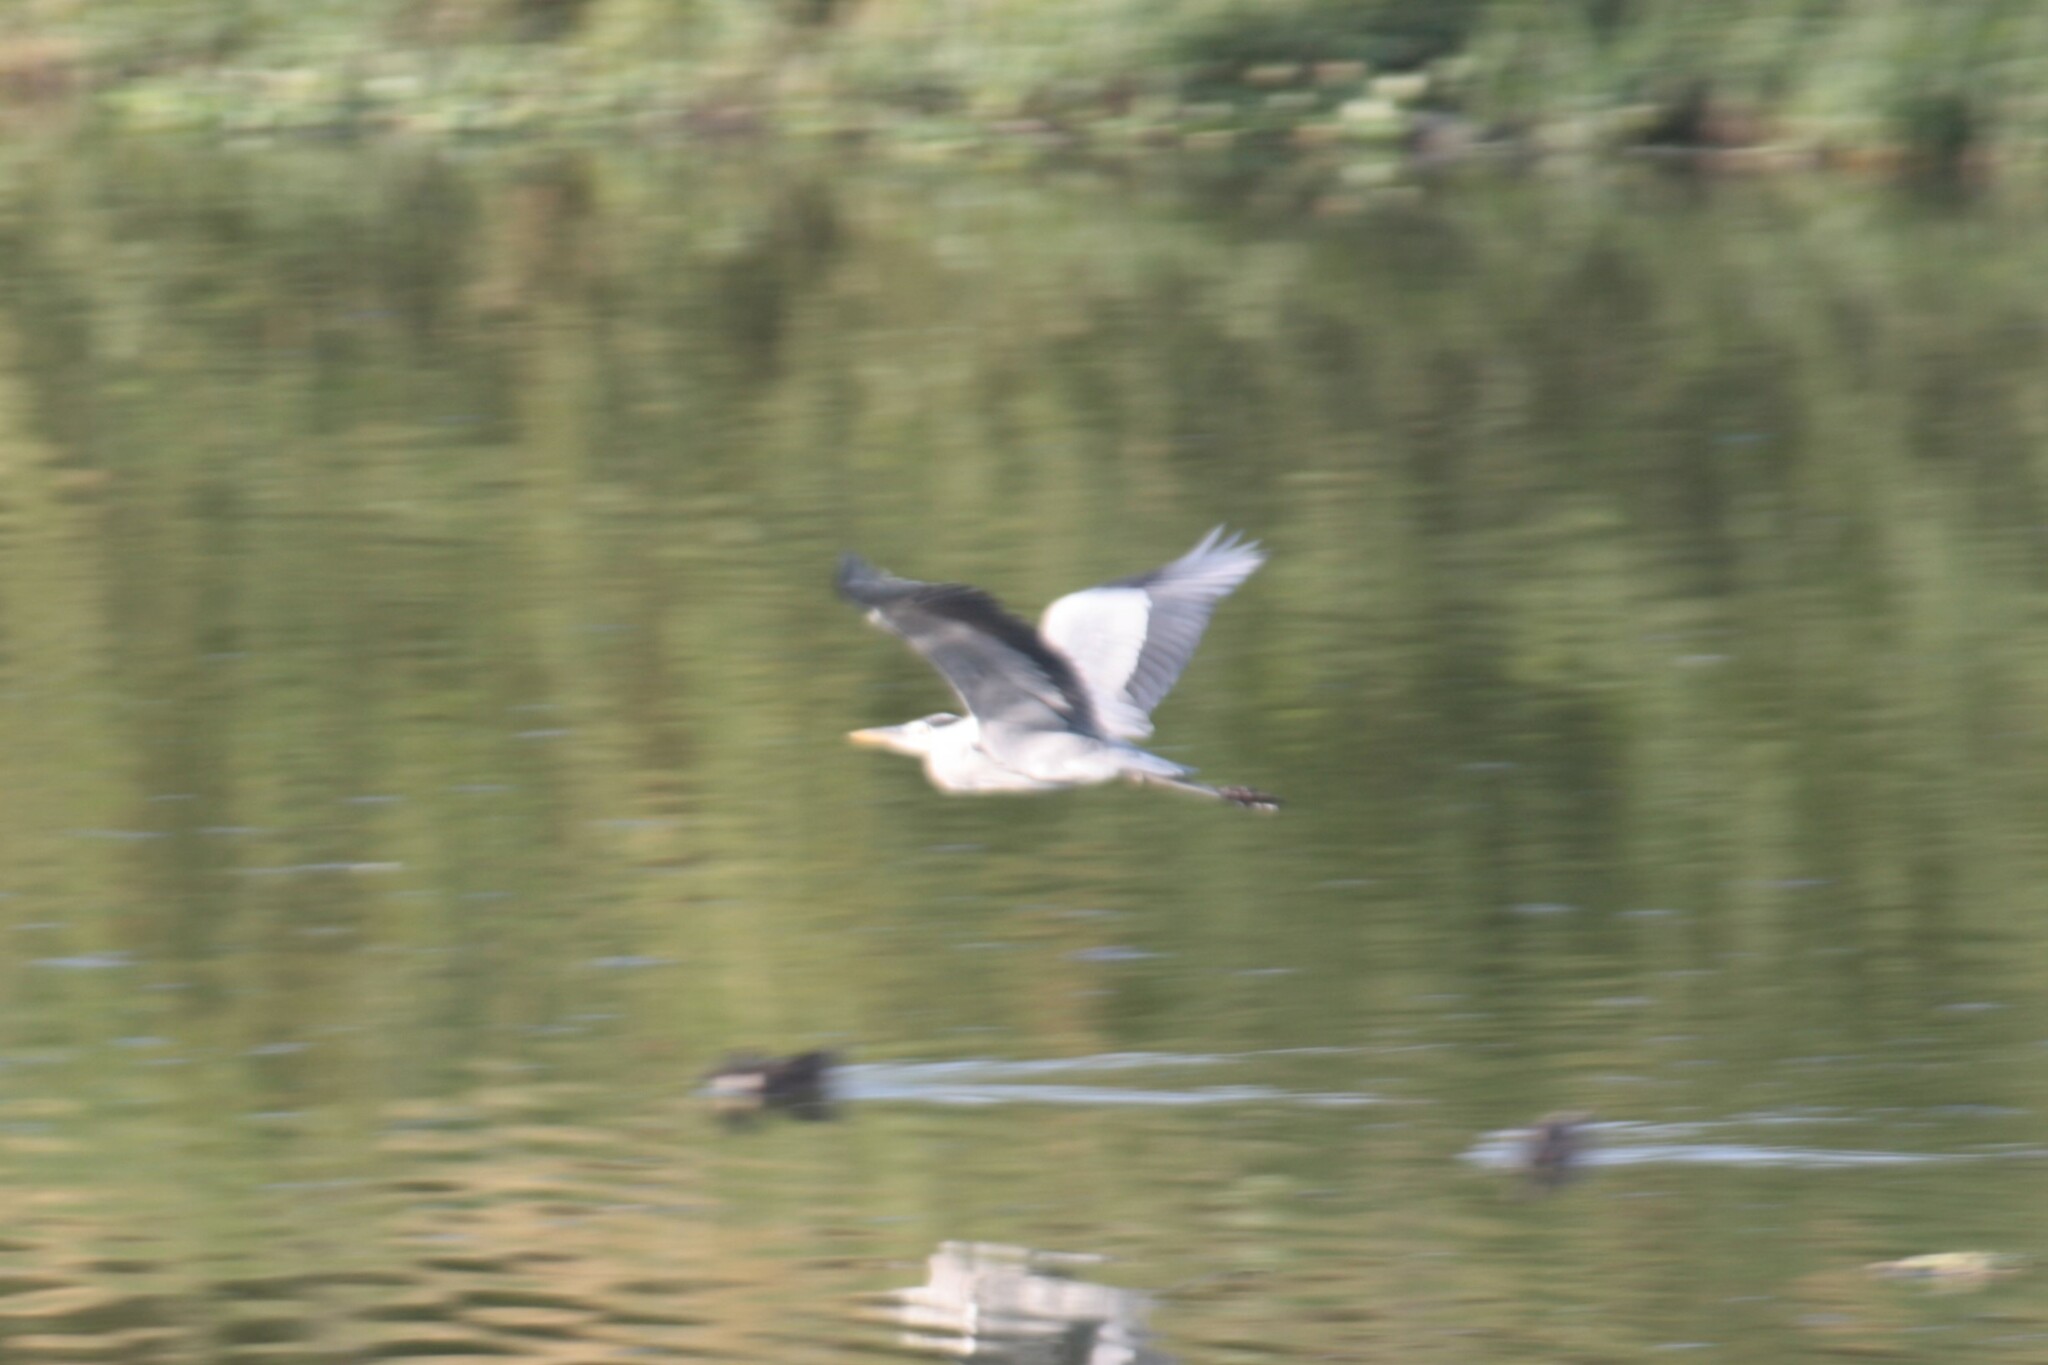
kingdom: Animalia
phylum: Chordata
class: Aves
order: Pelecaniformes
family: Ardeidae
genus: Ardea
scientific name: Ardea cinerea
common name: Grey heron
